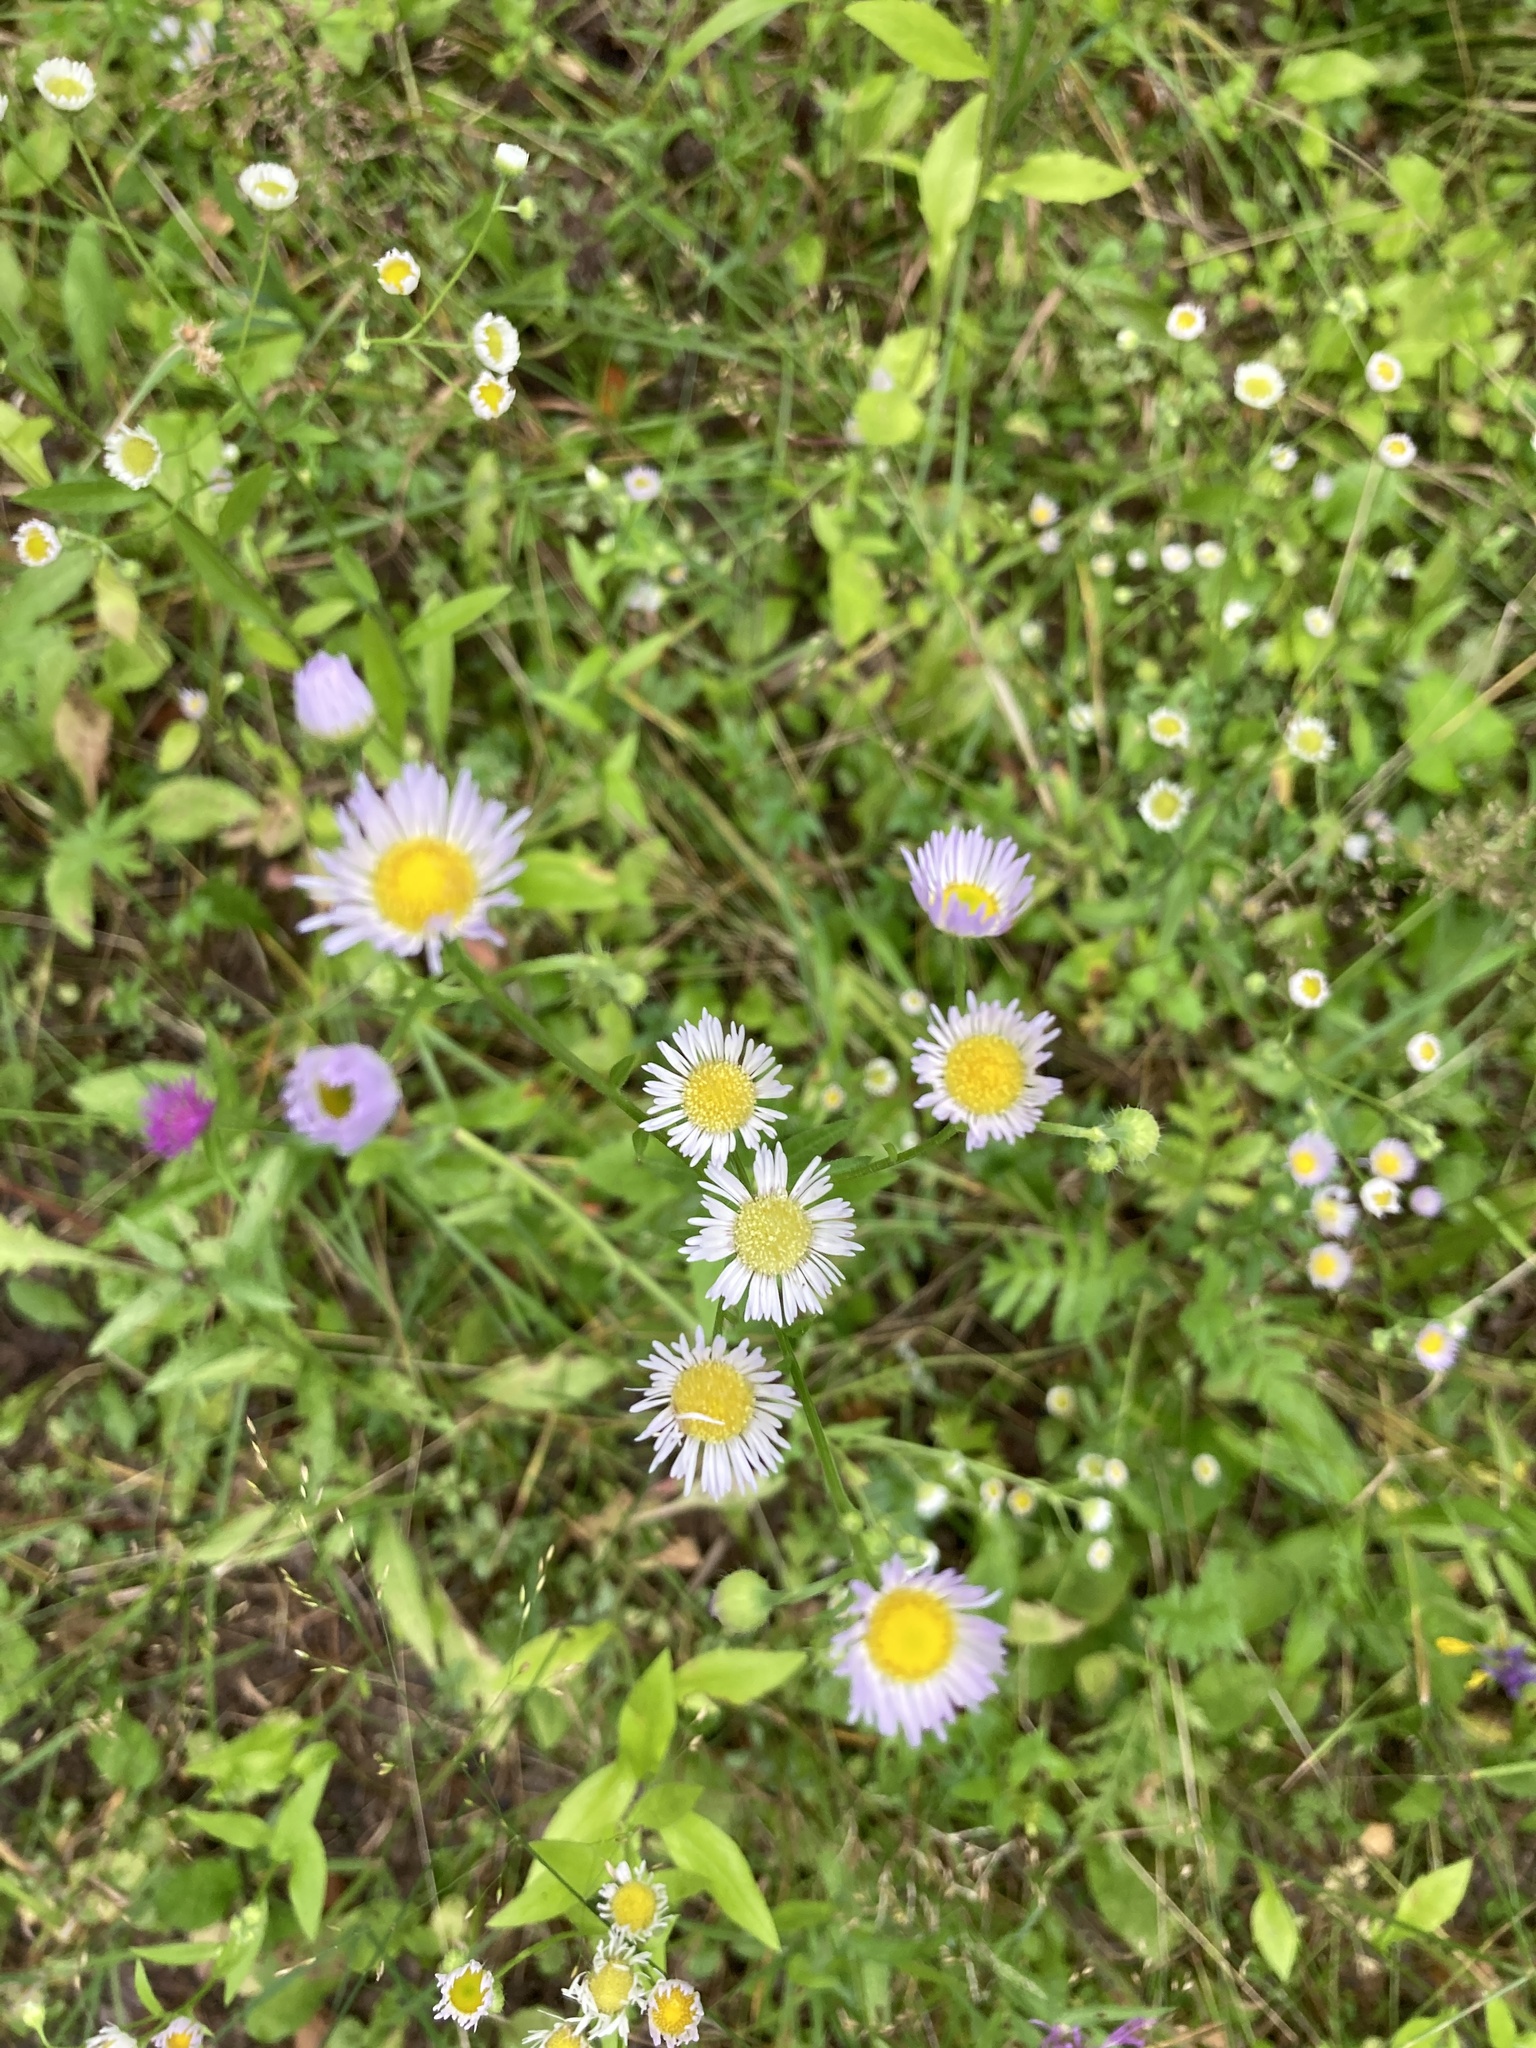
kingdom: Plantae
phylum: Tracheophyta
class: Magnoliopsida
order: Asterales
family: Asteraceae
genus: Erigeron
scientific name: Erigeron annuus
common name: Tall fleabane
